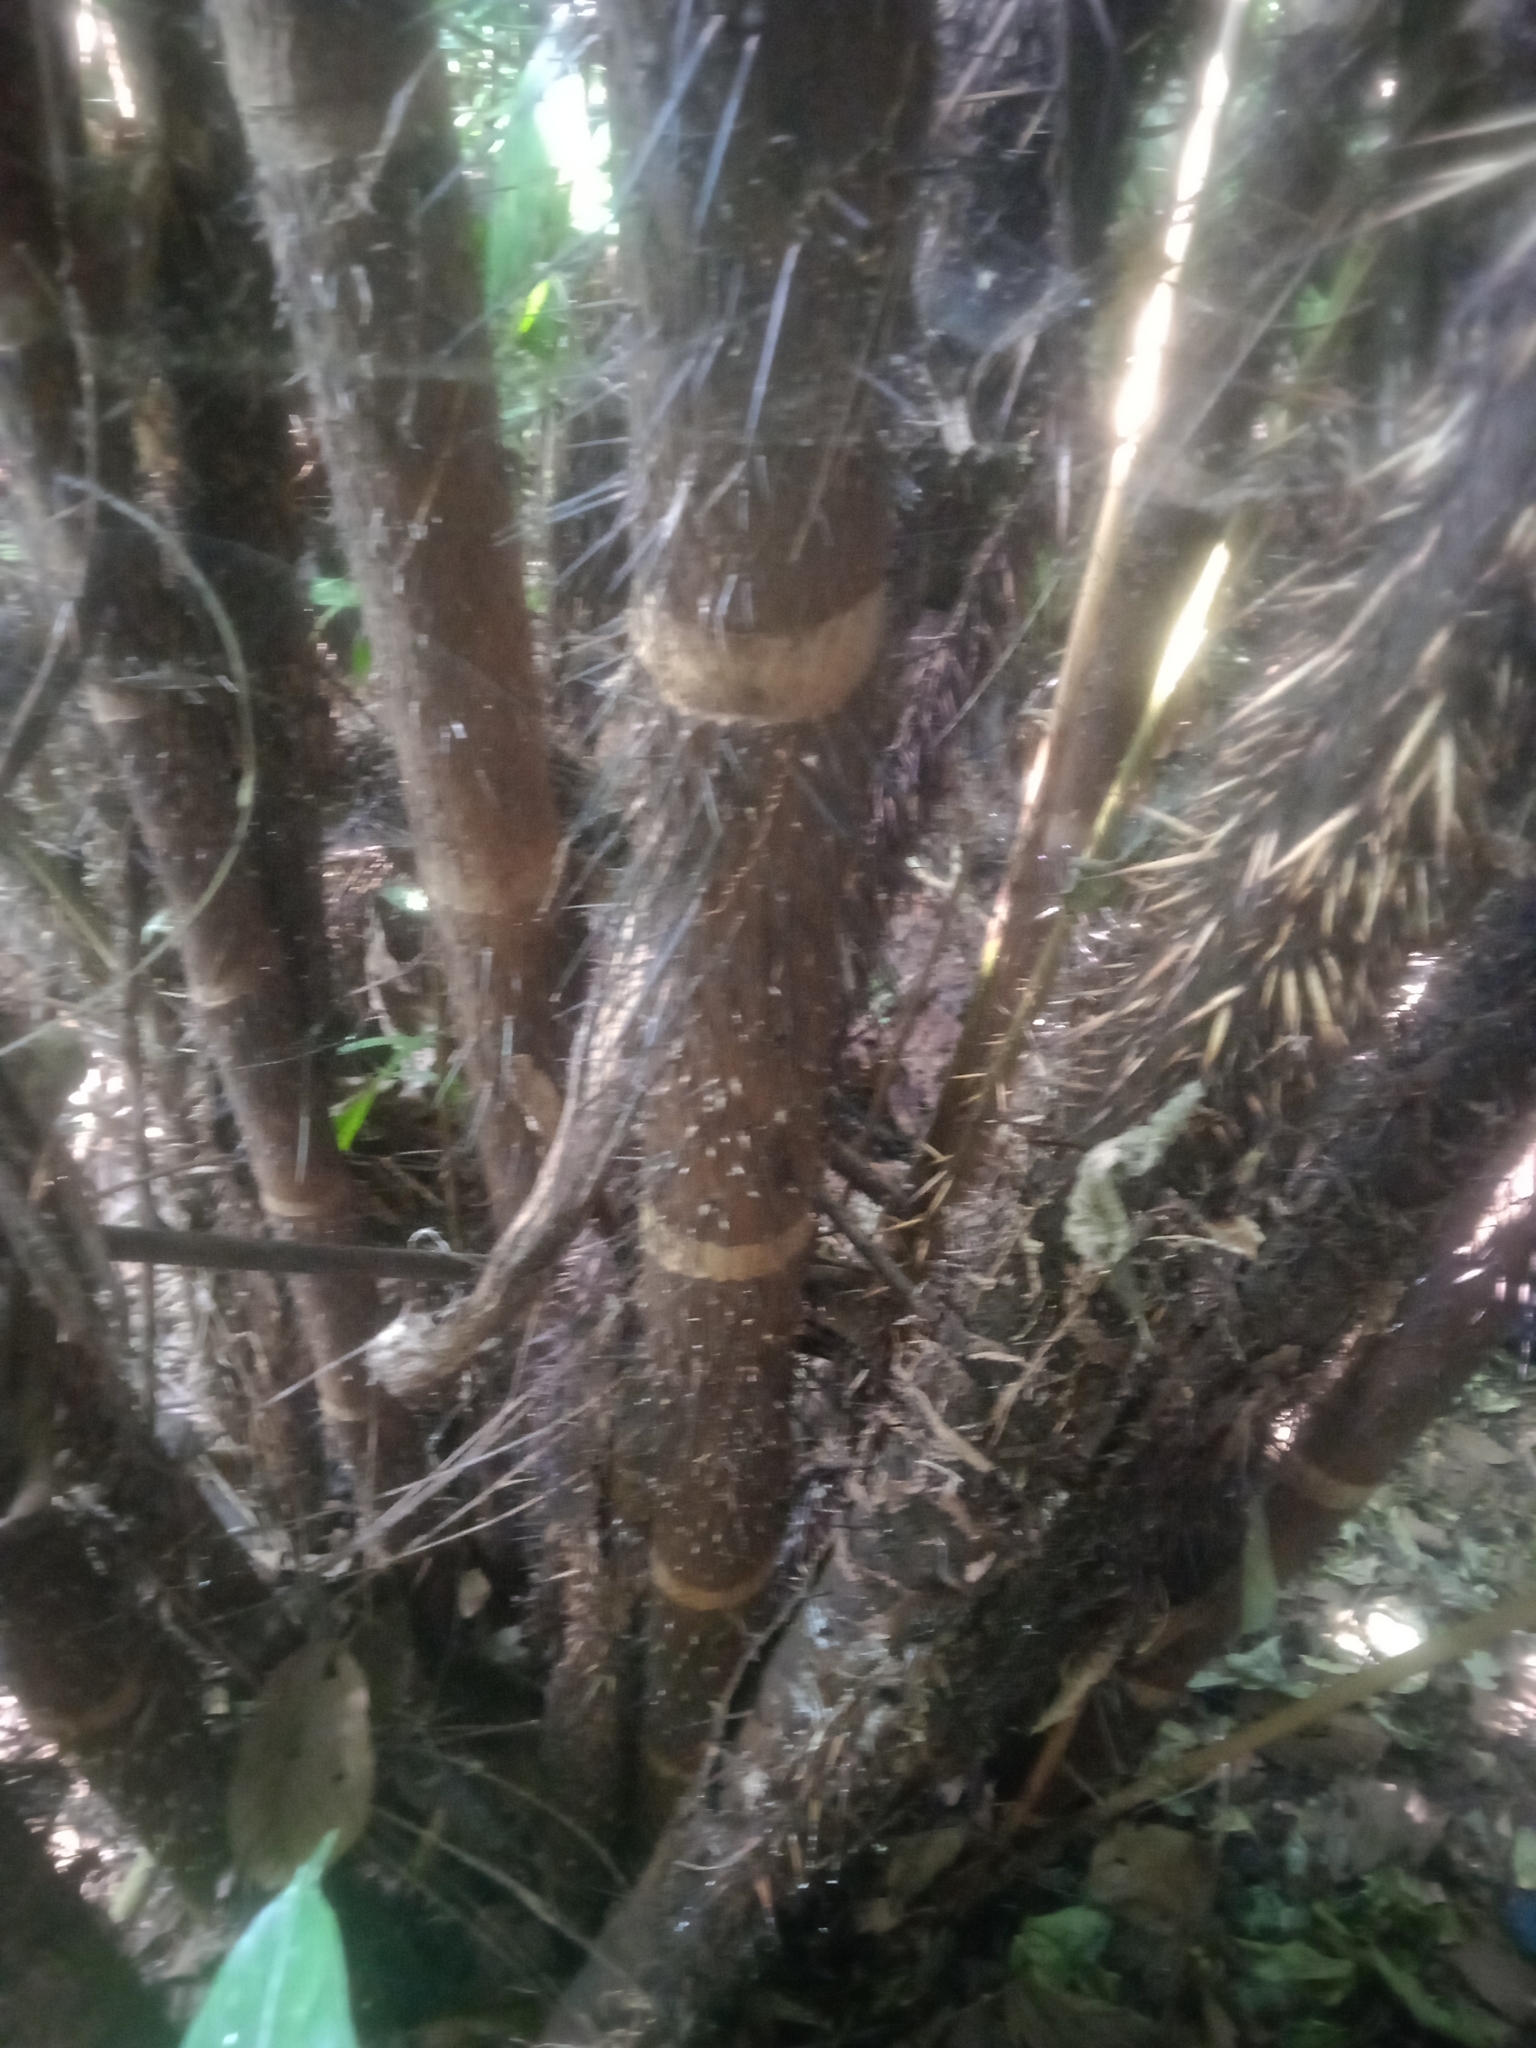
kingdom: Plantae
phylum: Tracheophyta
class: Liliopsida
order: Arecales
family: Arecaceae
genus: Astrocaryum
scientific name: Astrocaryum aculeatissimum
